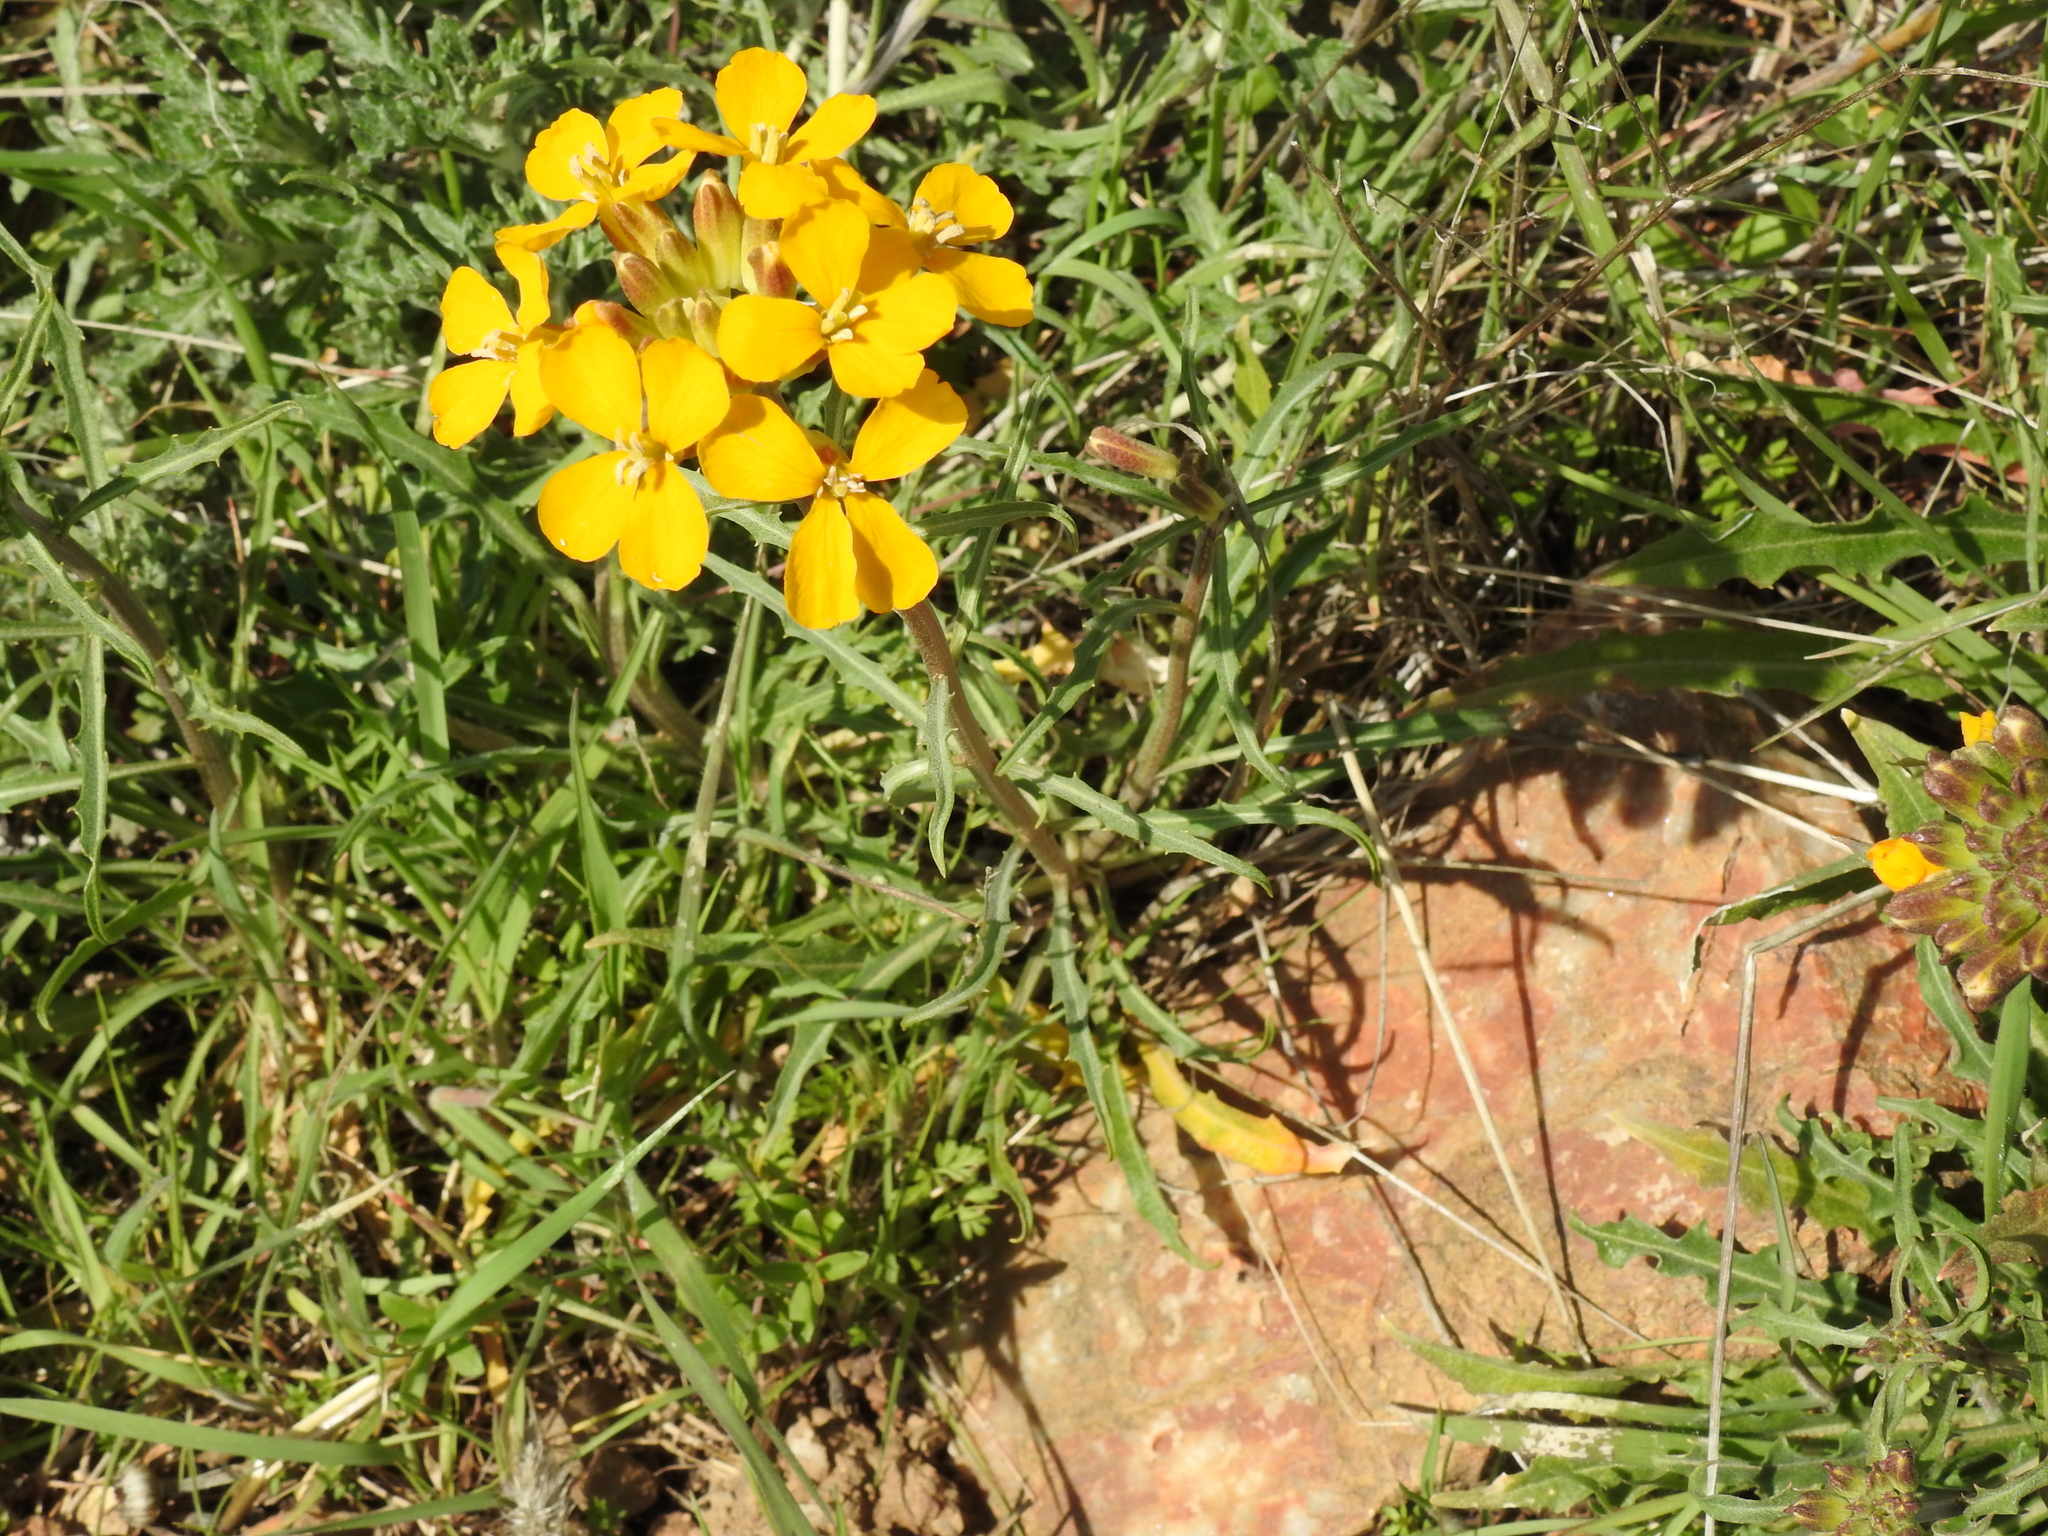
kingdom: Plantae
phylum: Tracheophyta
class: Magnoliopsida
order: Brassicales
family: Brassicaceae
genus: Erysimum
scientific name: Erysimum capitatum
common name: Western wallflower
